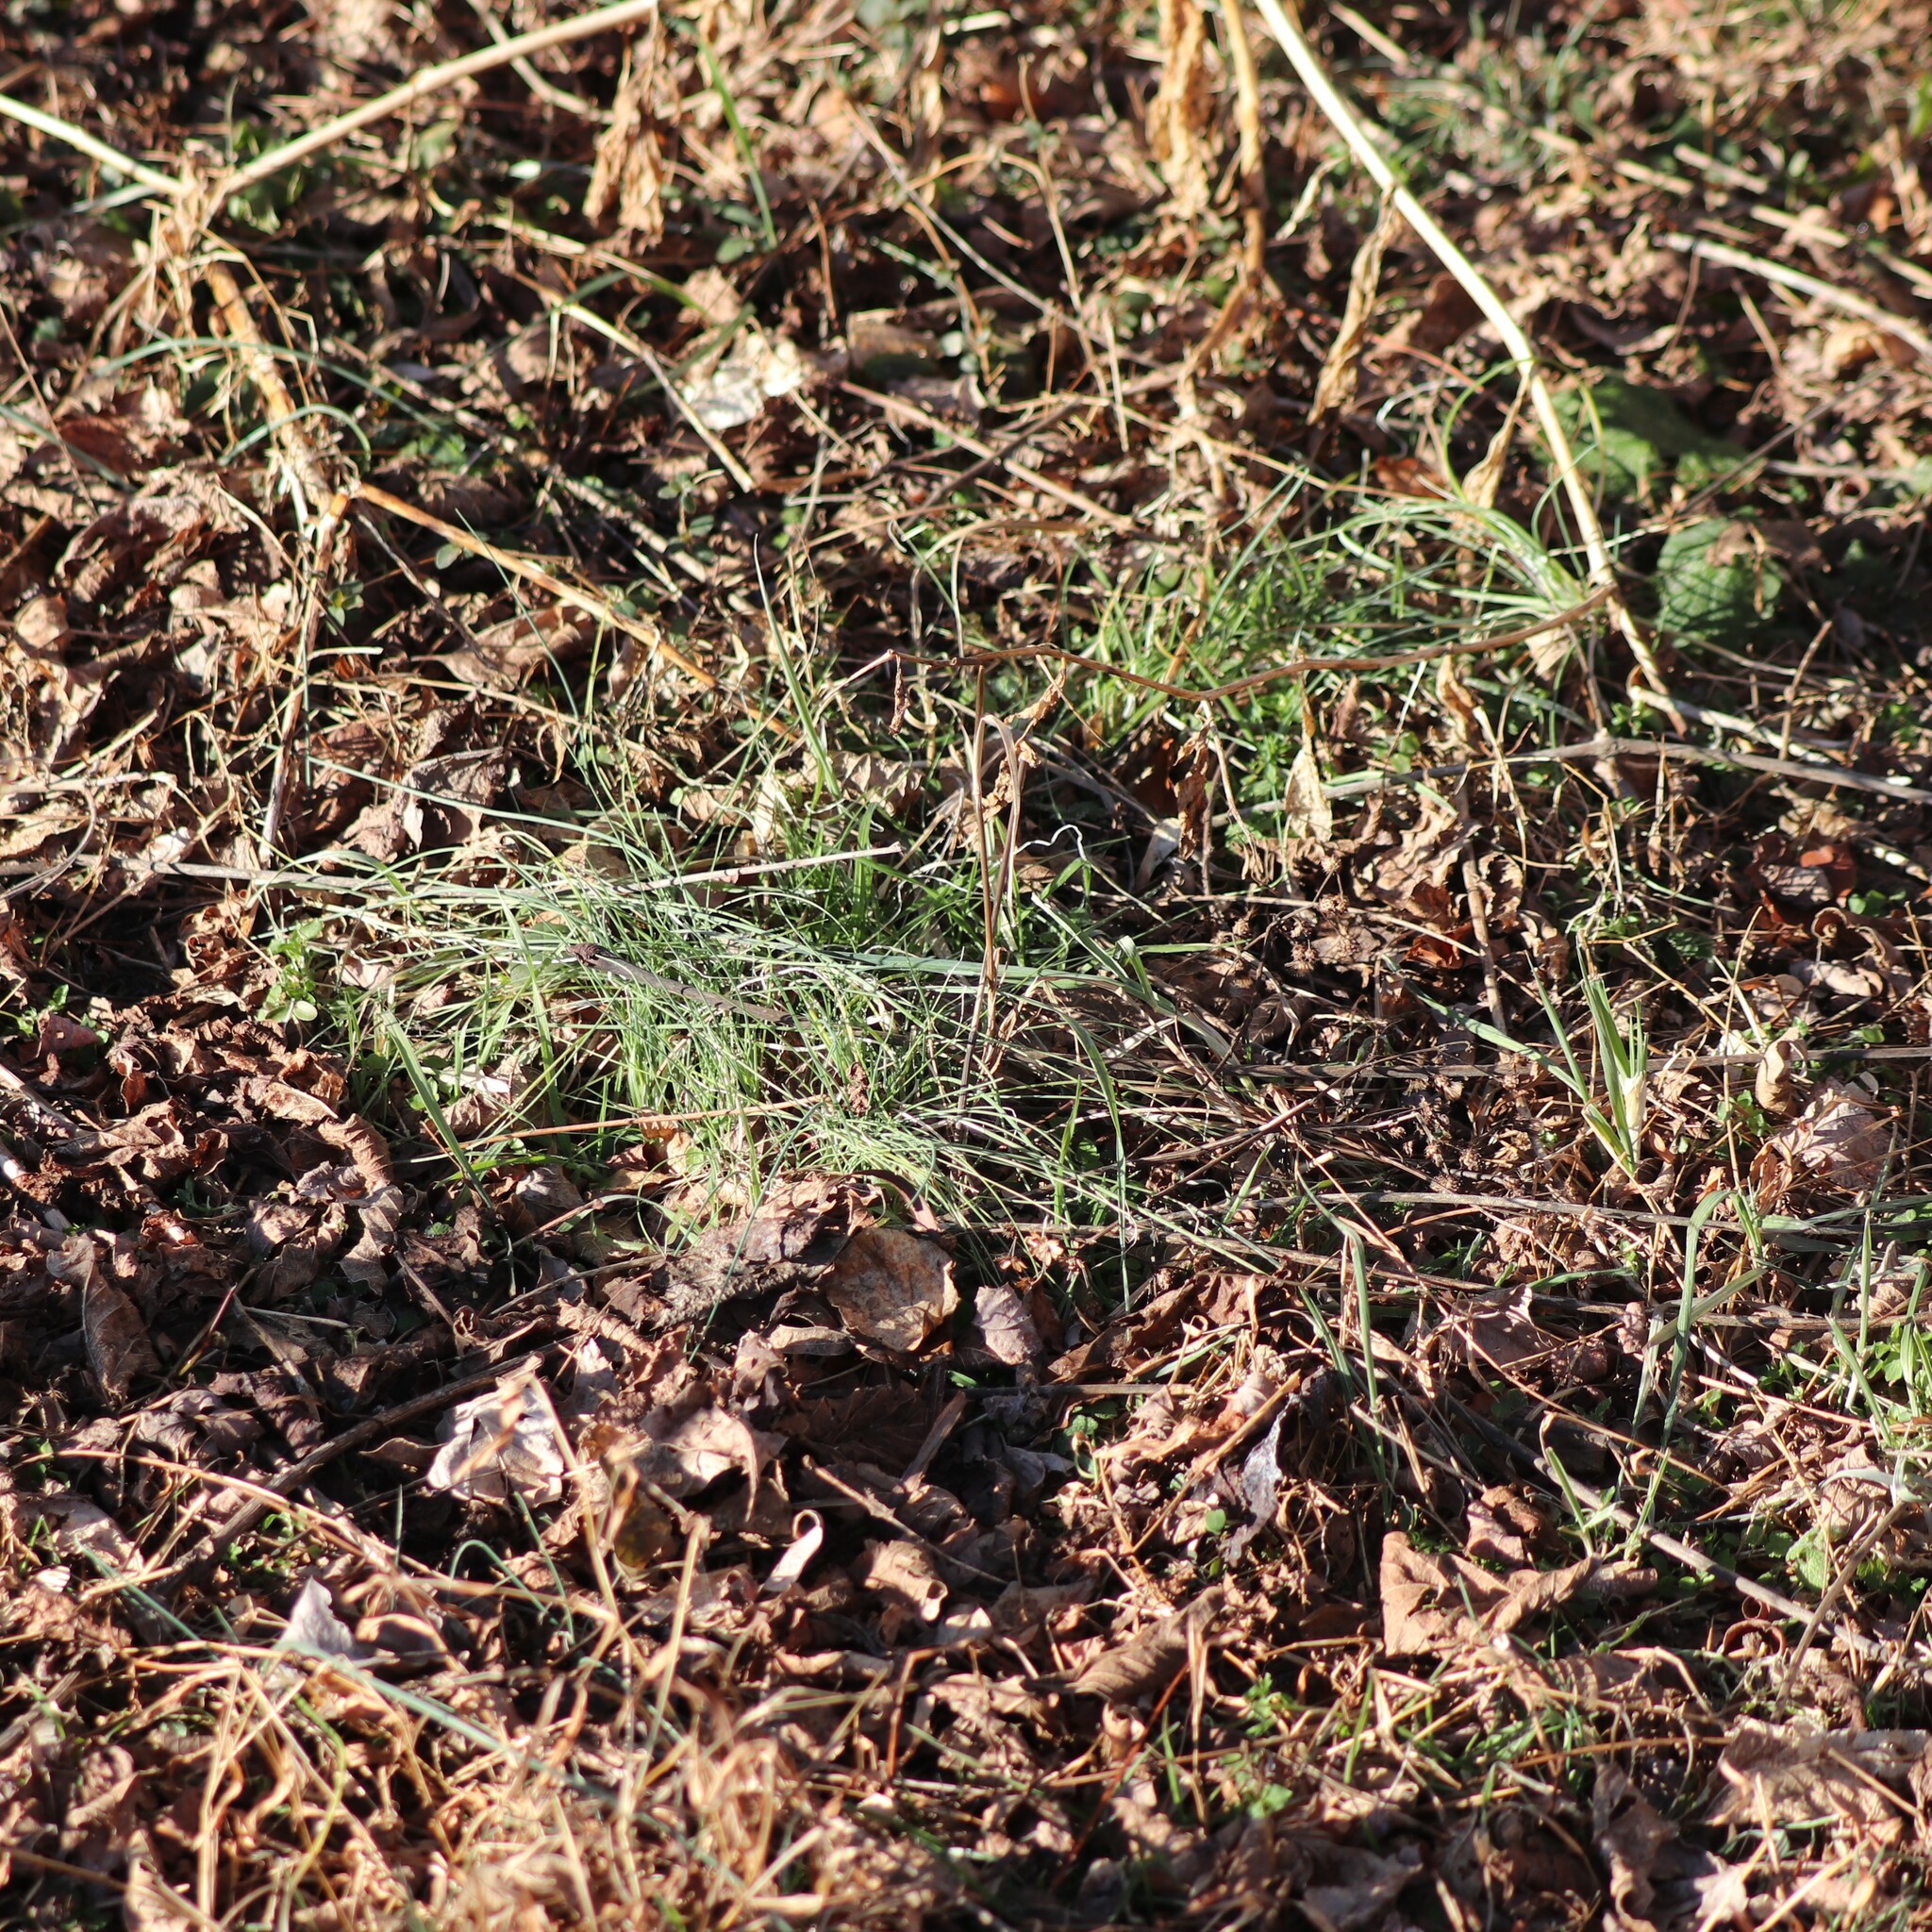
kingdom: Plantae
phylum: Tracheophyta
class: Liliopsida
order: Asparagales
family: Amaryllidaceae
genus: Allium
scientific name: Allium vineale
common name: Crow garlic
